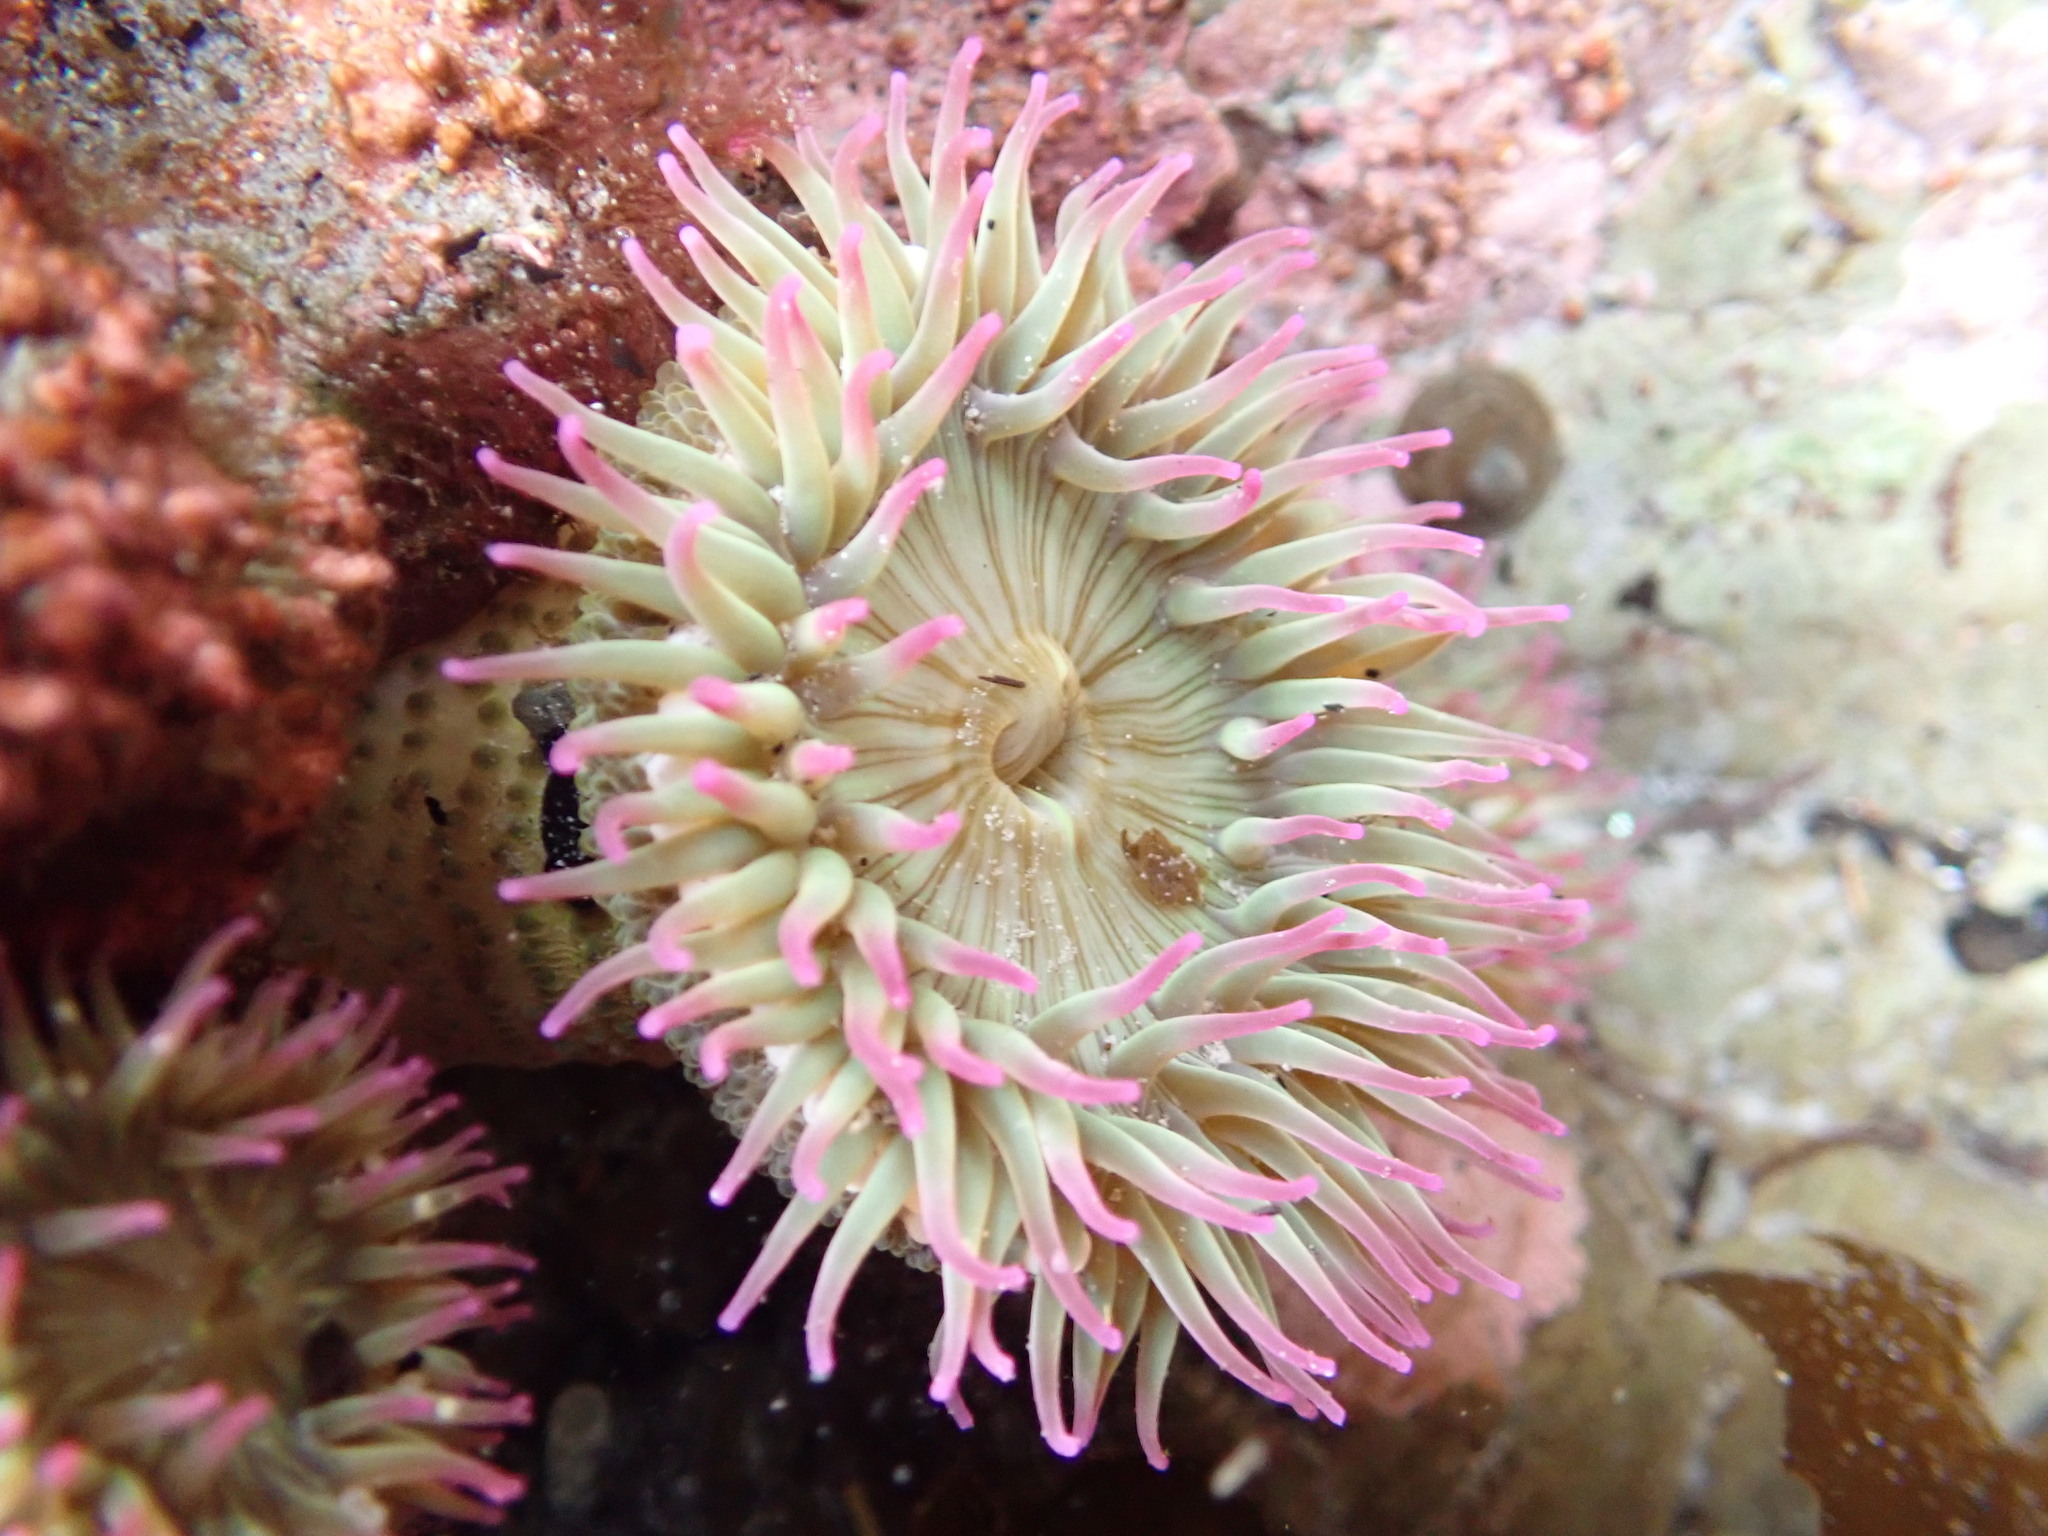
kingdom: Animalia
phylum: Cnidaria
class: Anthozoa
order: Actiniaria
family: Actiniidae
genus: Anthopleura
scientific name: Anthopleura elegantissima
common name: Clonal anemone
